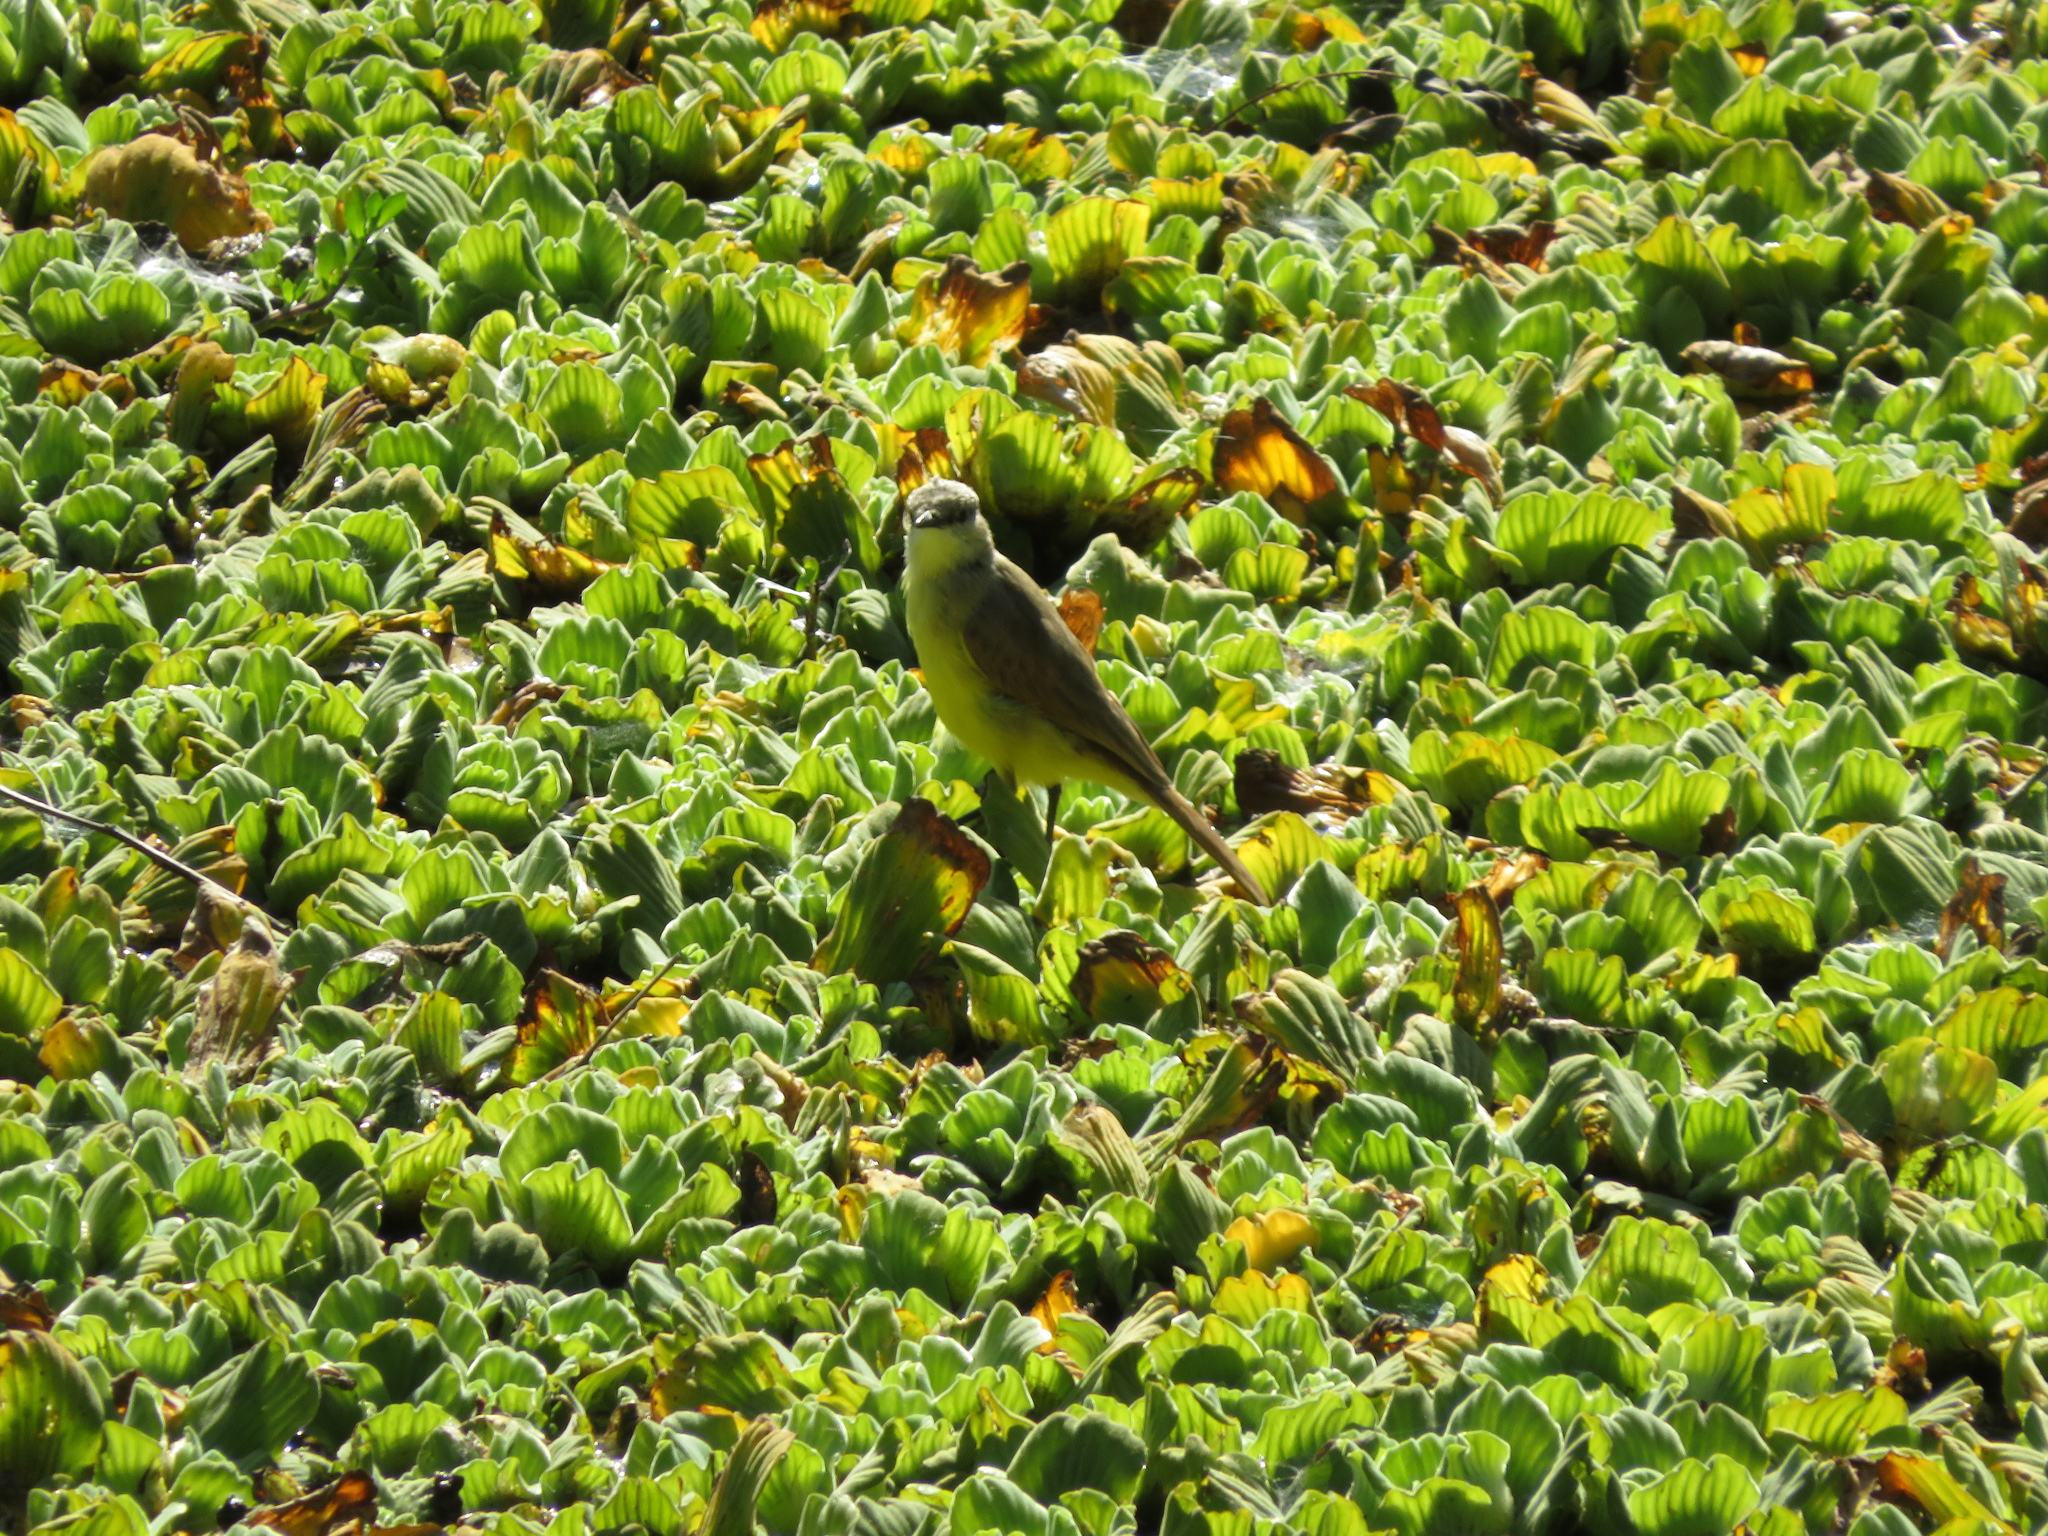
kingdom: Animalia
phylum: Chordata
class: Aves
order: Passeriformes
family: Tyrannidae
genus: Machetornis
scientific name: Machetornis rixosa
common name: Cattle tyrant
